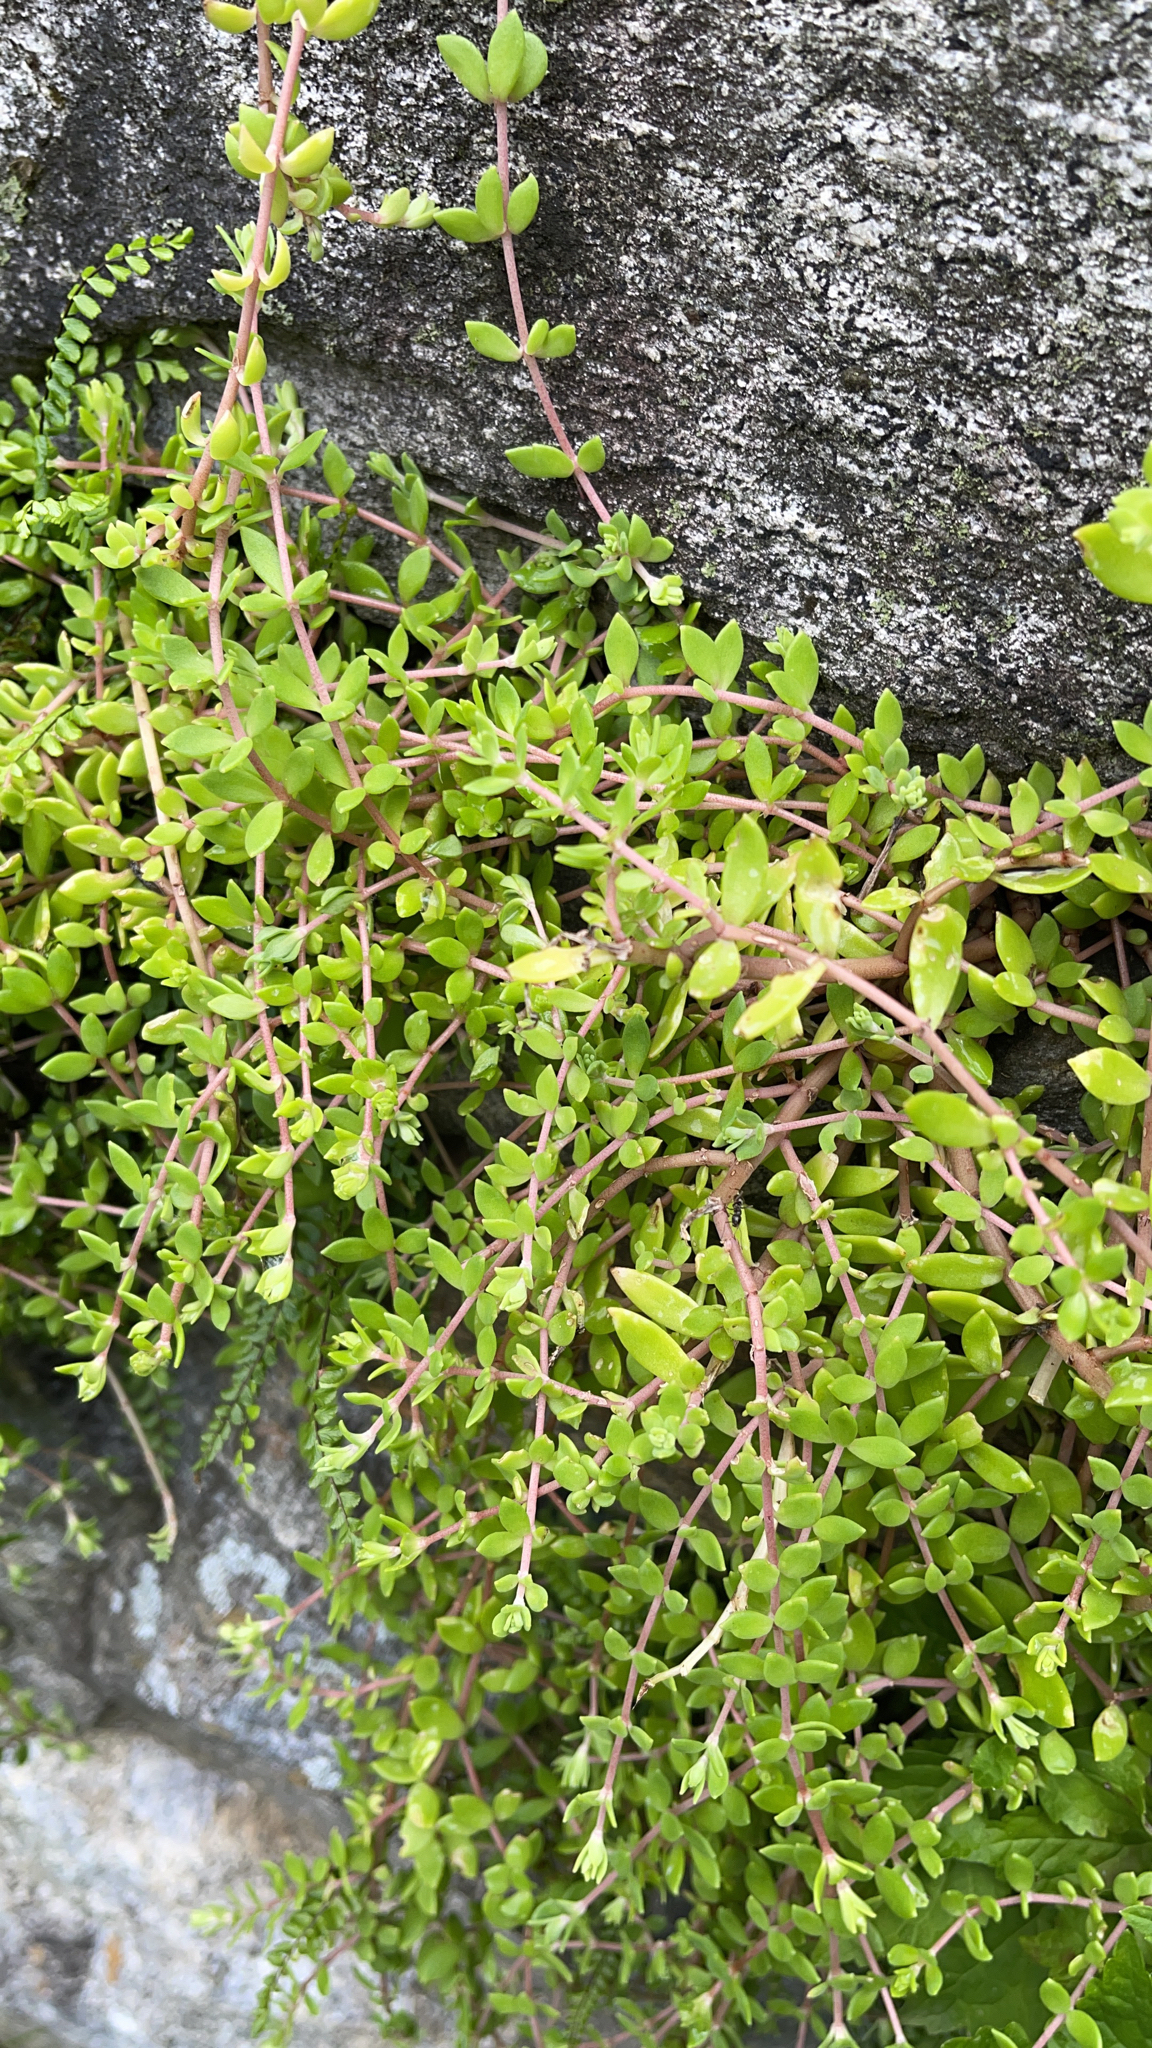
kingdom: Plantae
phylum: Tracheophyta
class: Magnoliopsida
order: Saxifragales
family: Crassulaceae
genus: Sedum
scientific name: Sedum sarmentosum
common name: Stringy stonecrop
